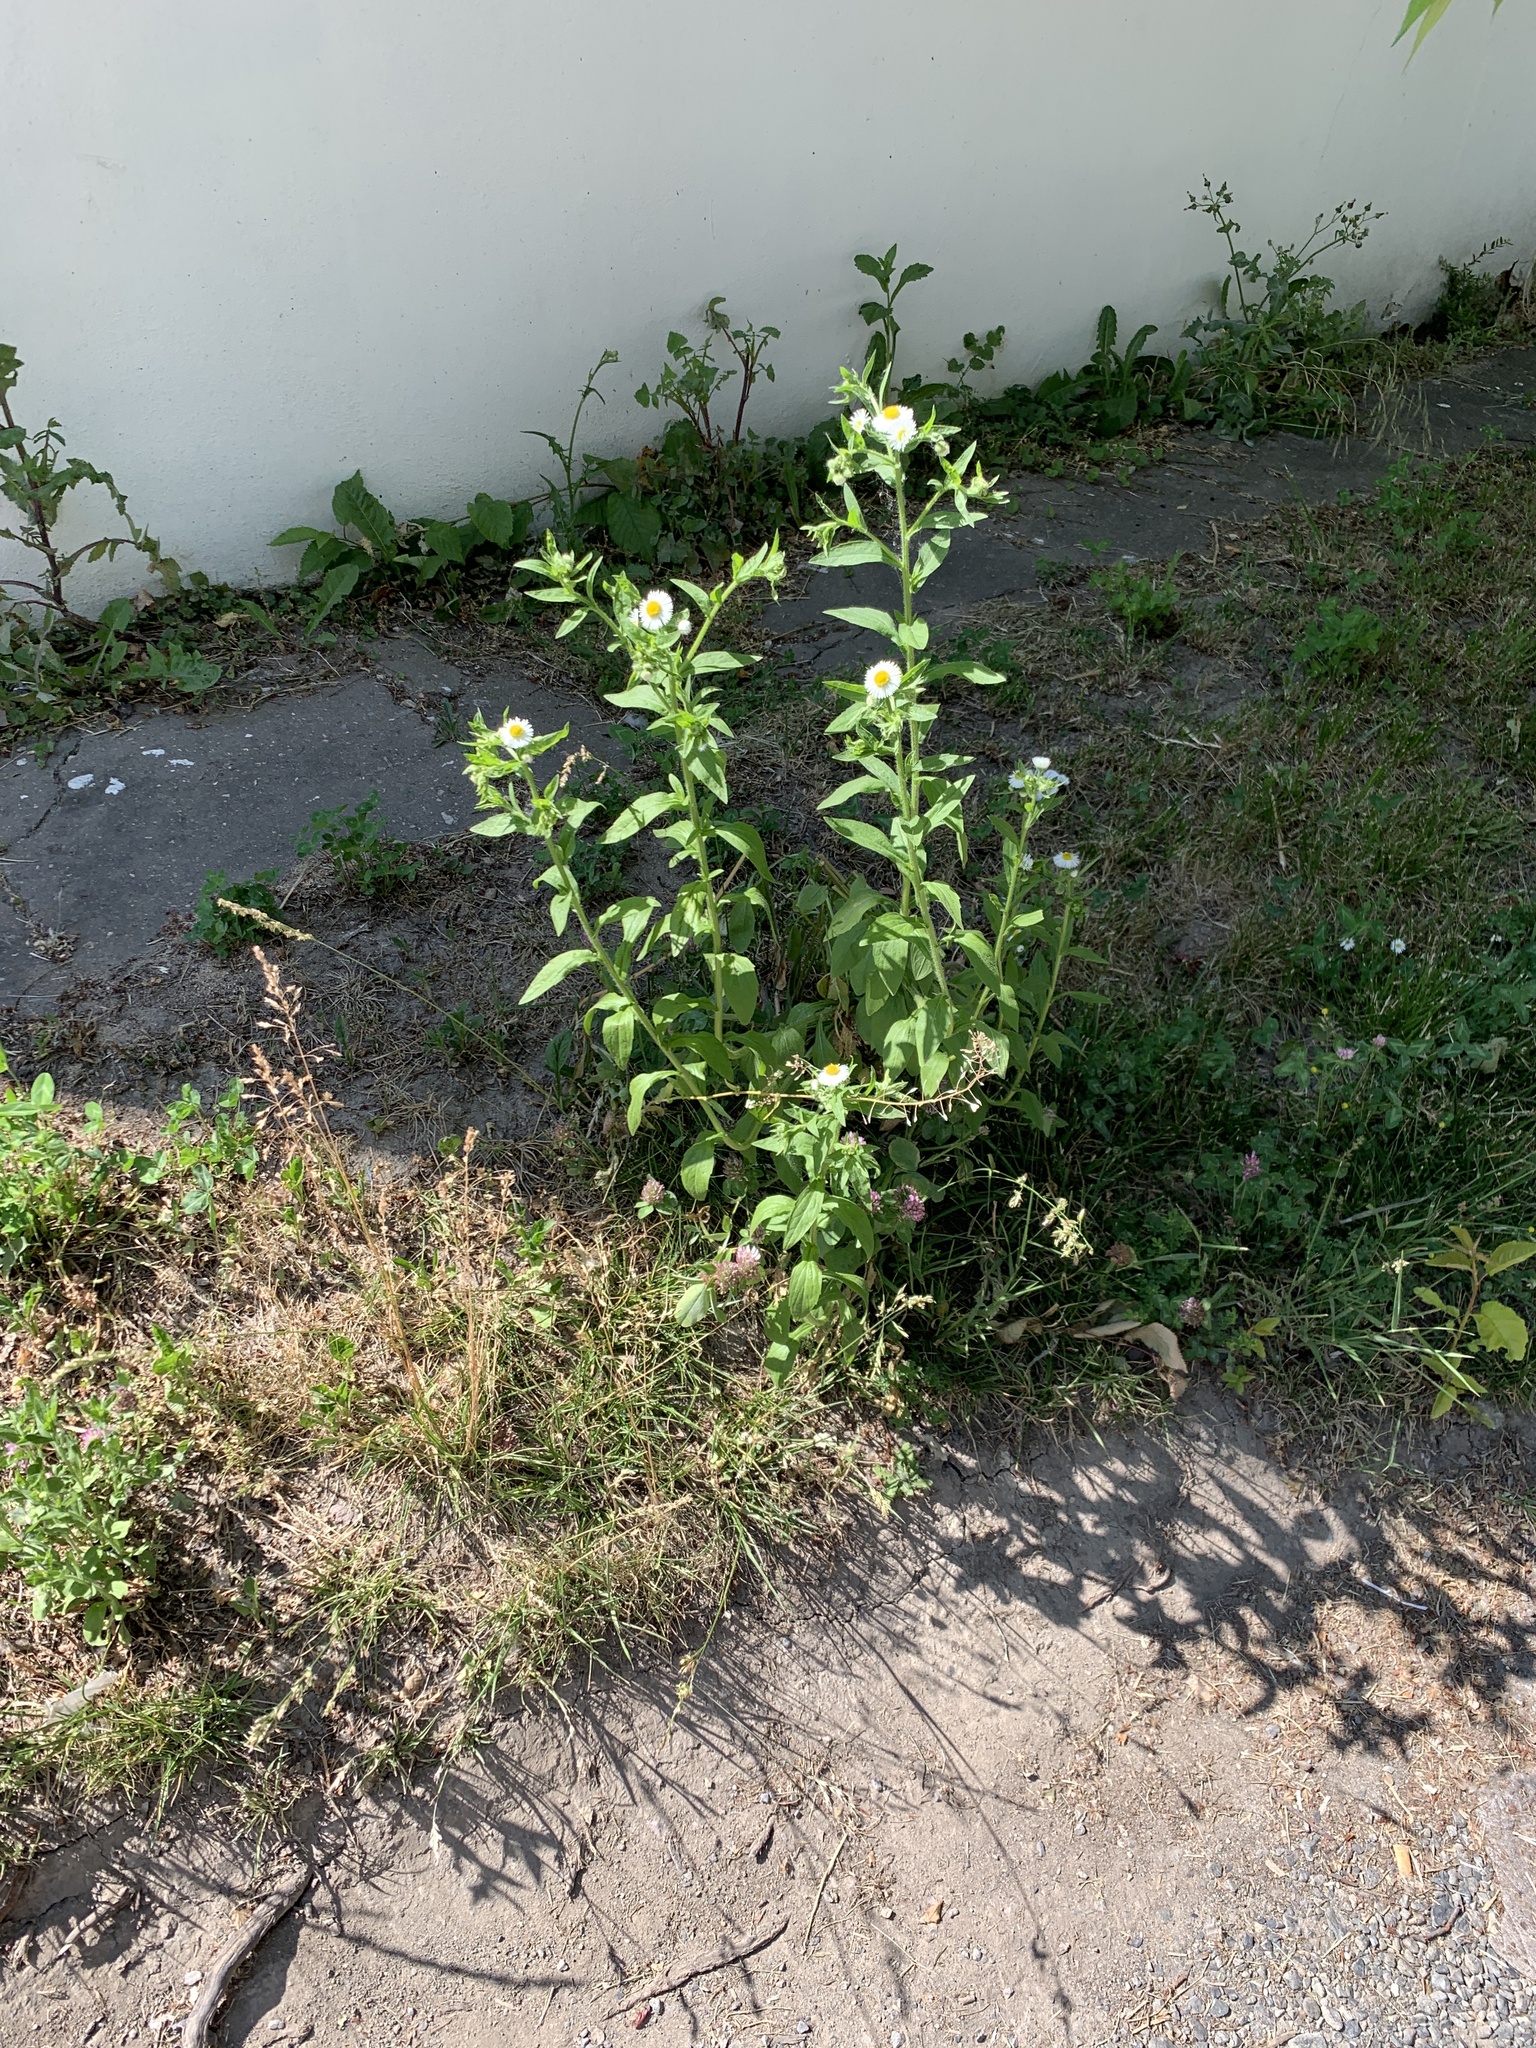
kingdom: Plantae
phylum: Tracheophyta
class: Magnoliopsida
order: Asterales
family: Asteraceae
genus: Erigeron
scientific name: Erigeron annuus
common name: Tall fleabane
